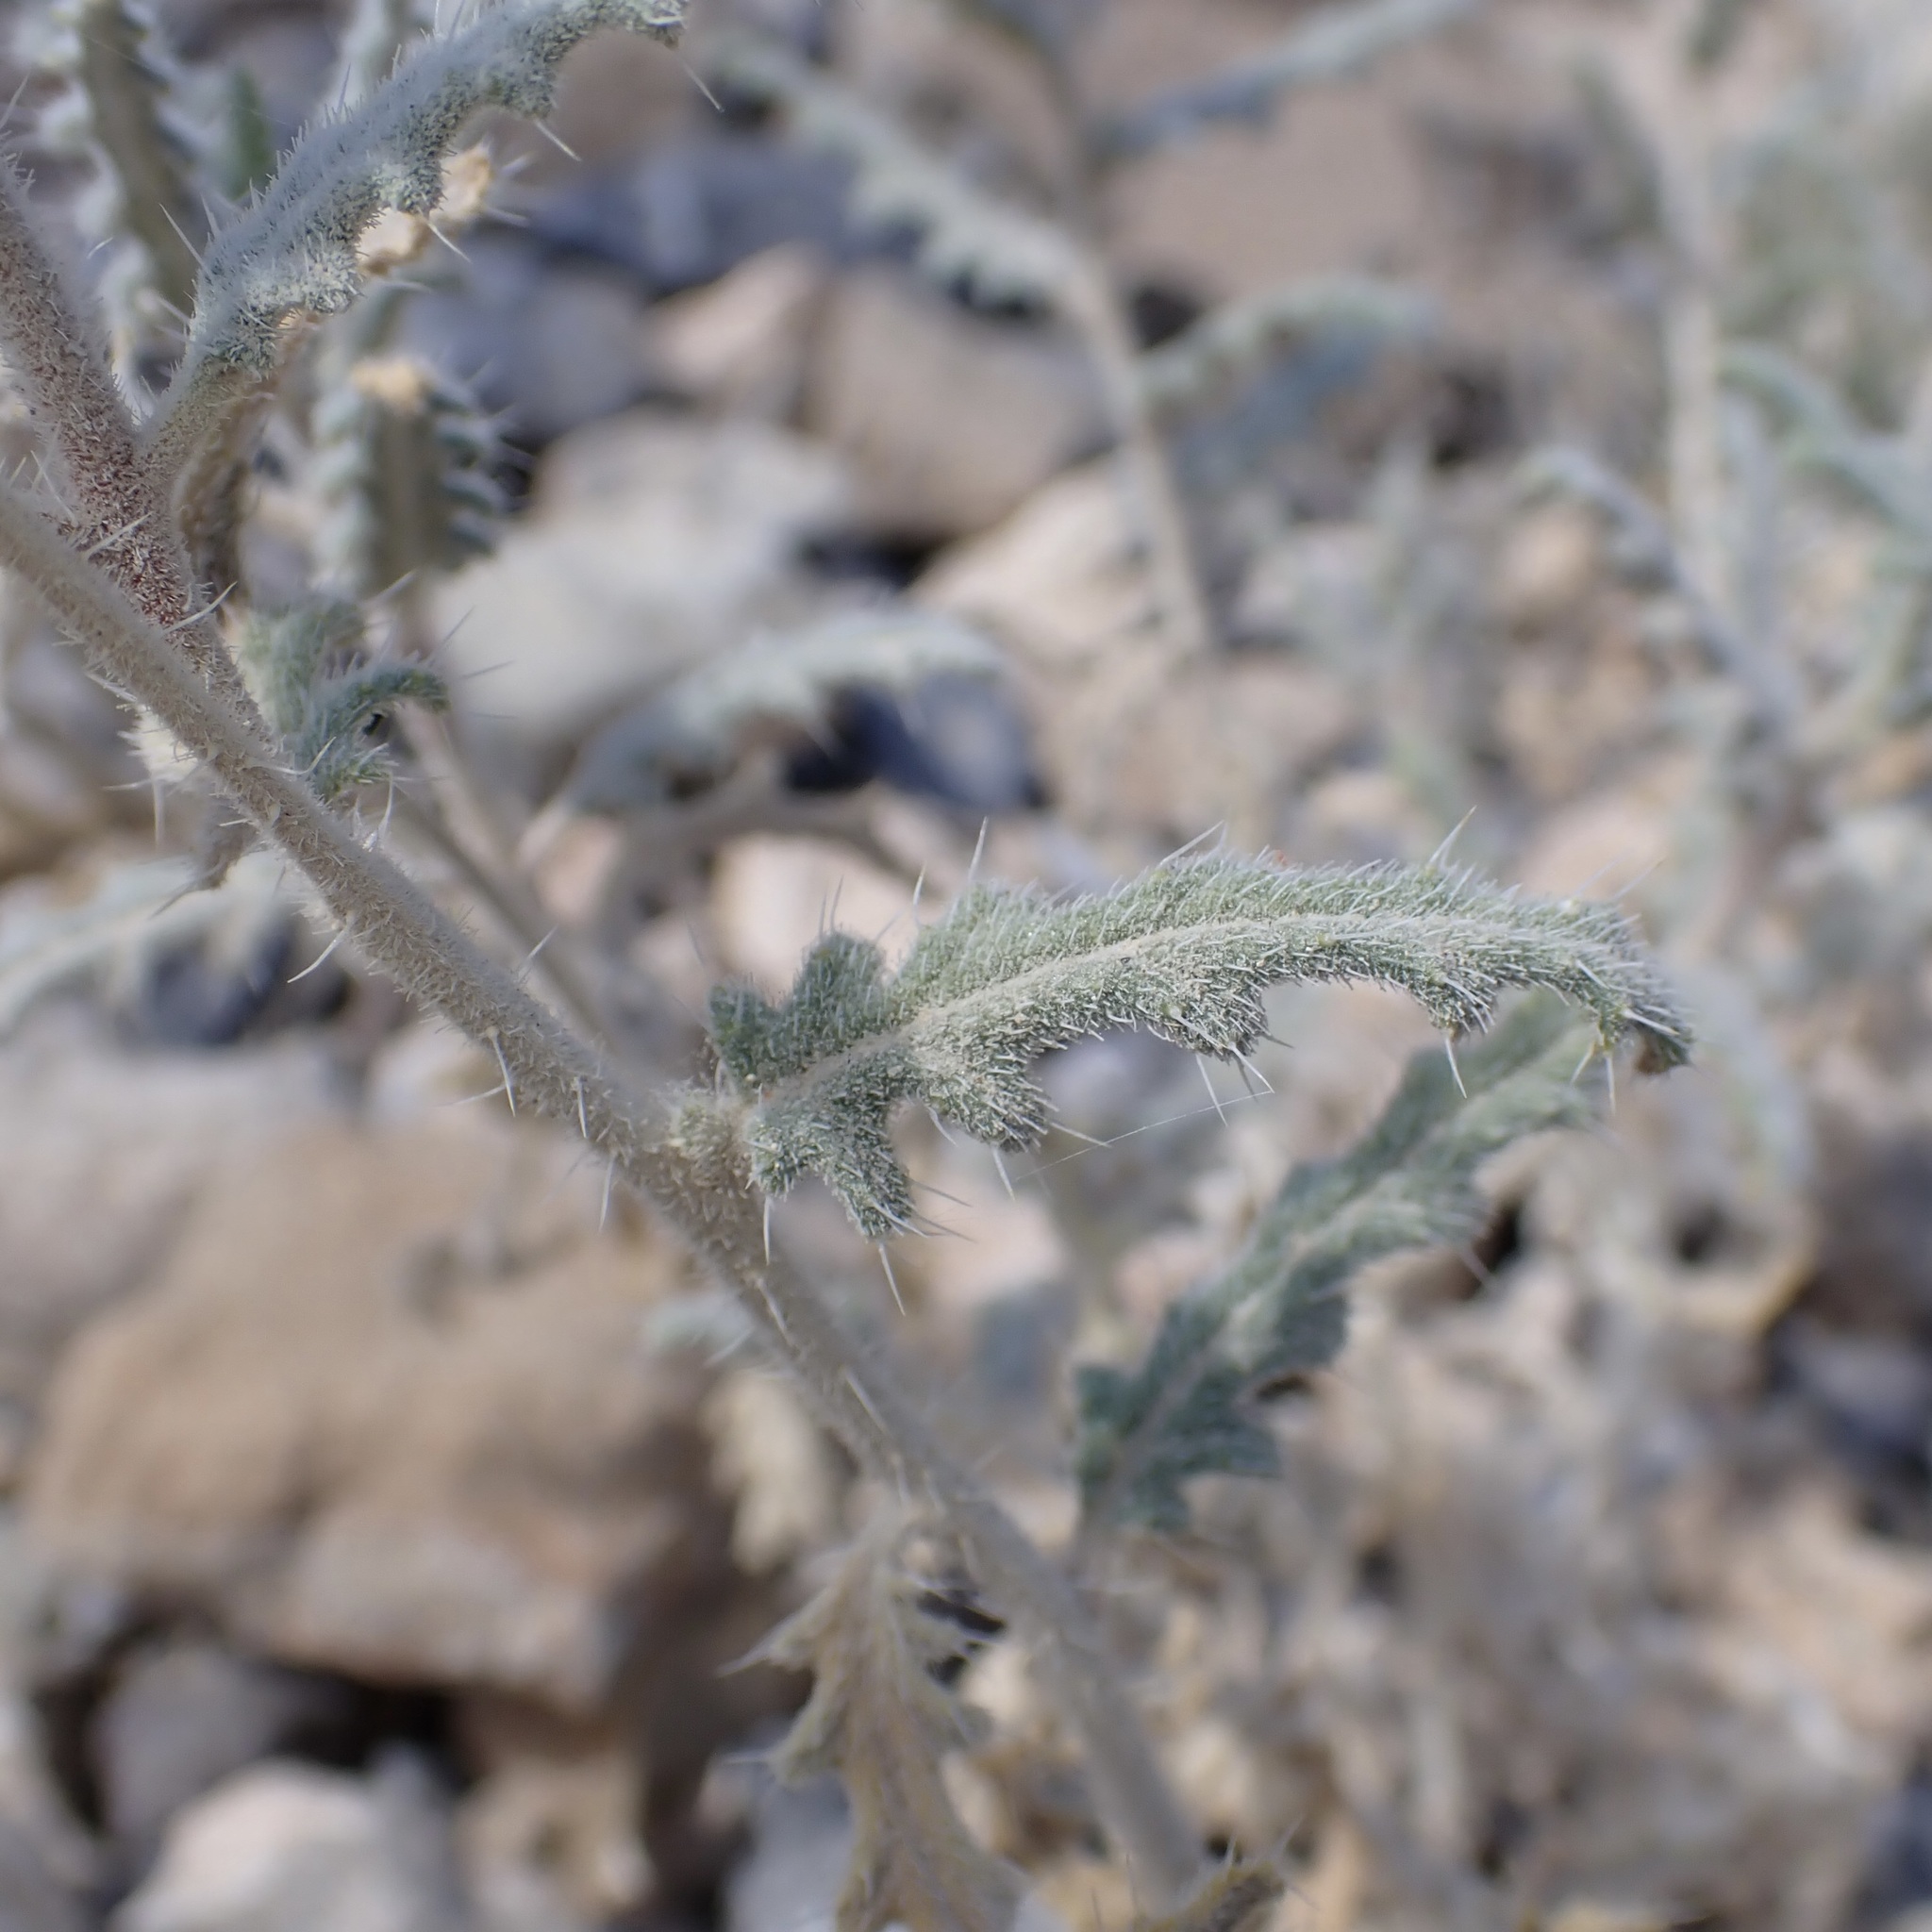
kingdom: Plantae
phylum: Tracheophyta
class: Magnoliopsida
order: Cornales
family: Loasaceae
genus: Cevallia
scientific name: Cevallia sinuata
